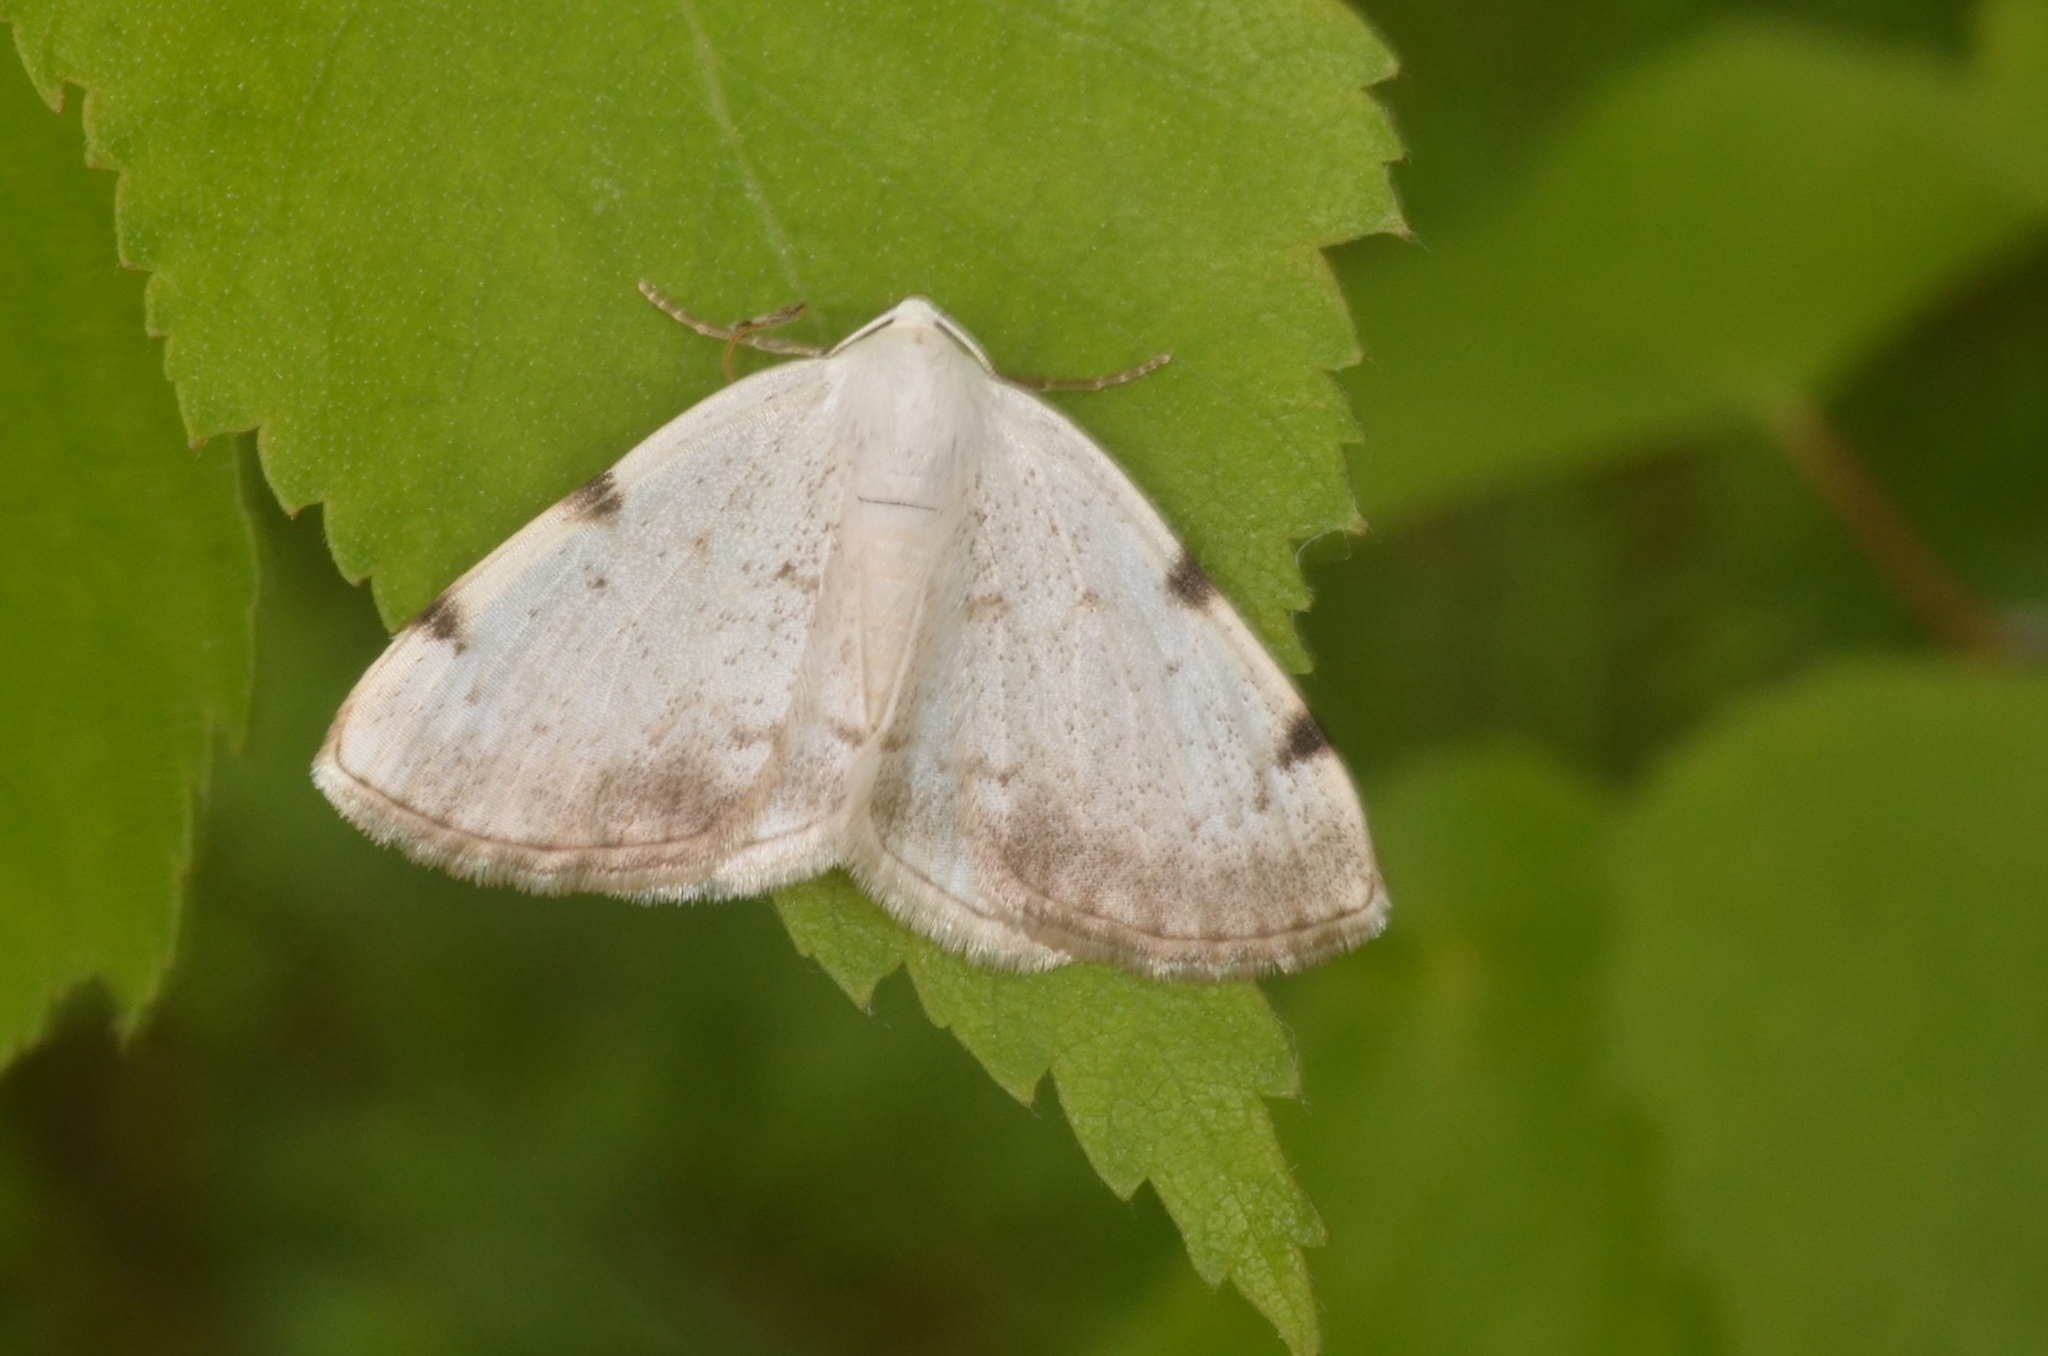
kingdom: Animalia
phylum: Arthropoda
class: Insecta
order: Lepidoptera
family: Geometridae
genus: Lomographa
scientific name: Lomographa bimaculata
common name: White-pinion spotted
